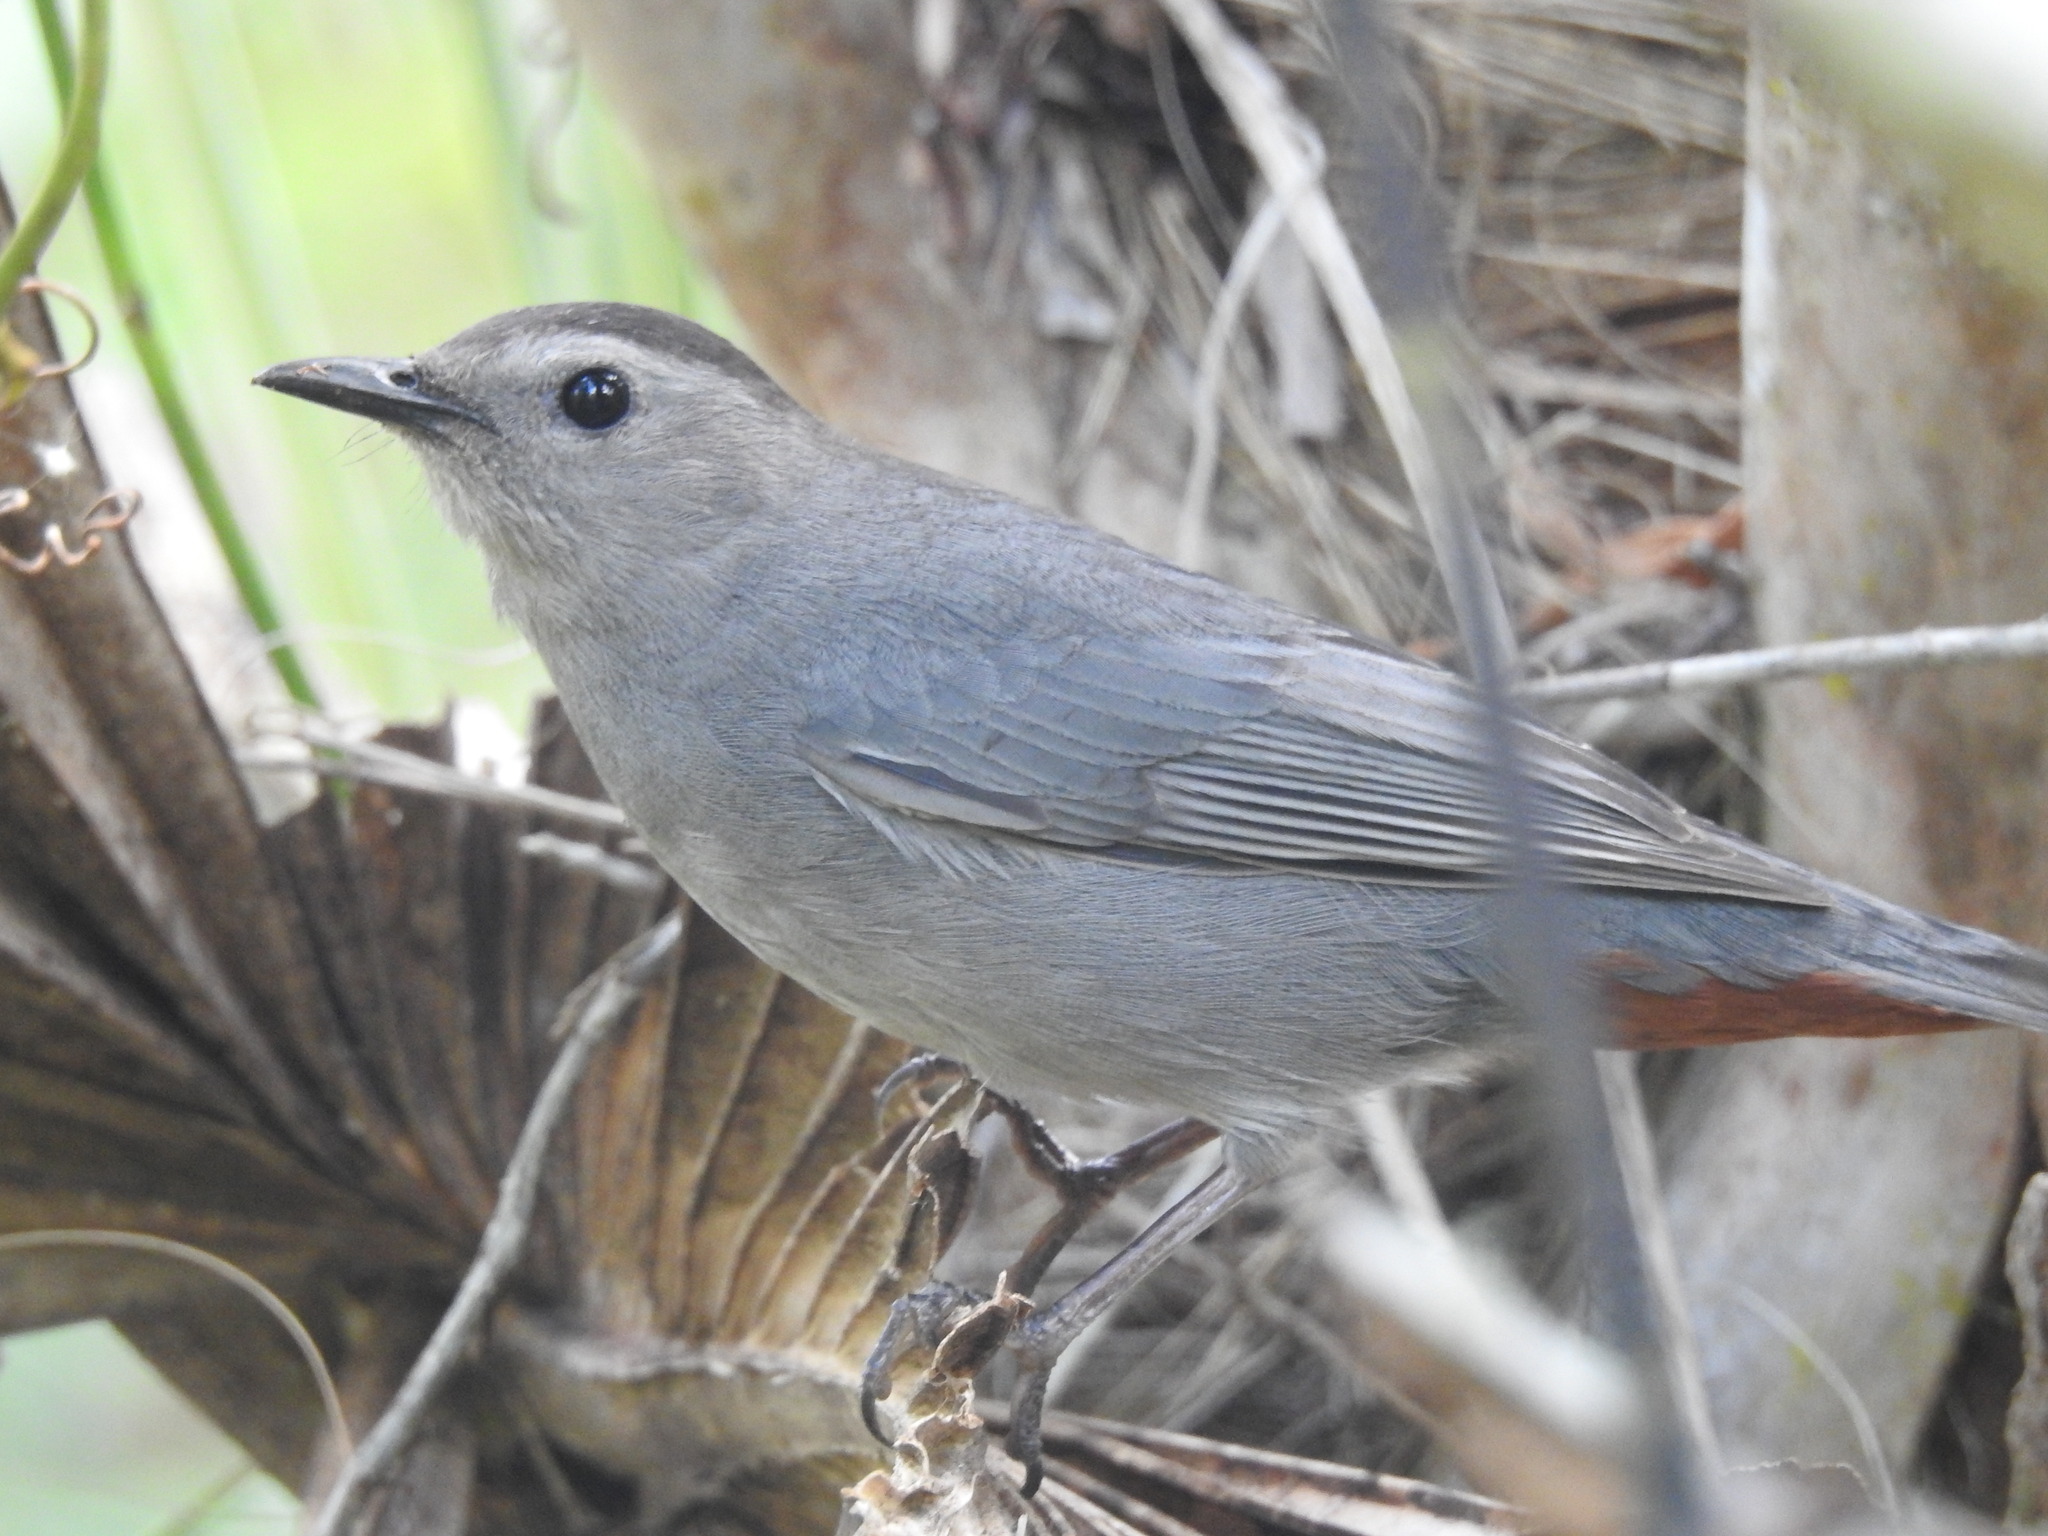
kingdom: Animalia
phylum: Chordata
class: Aves
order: Passeriformes
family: Mimidae
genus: Dumetella
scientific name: Dumetella carolinensis
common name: Gray catbird
